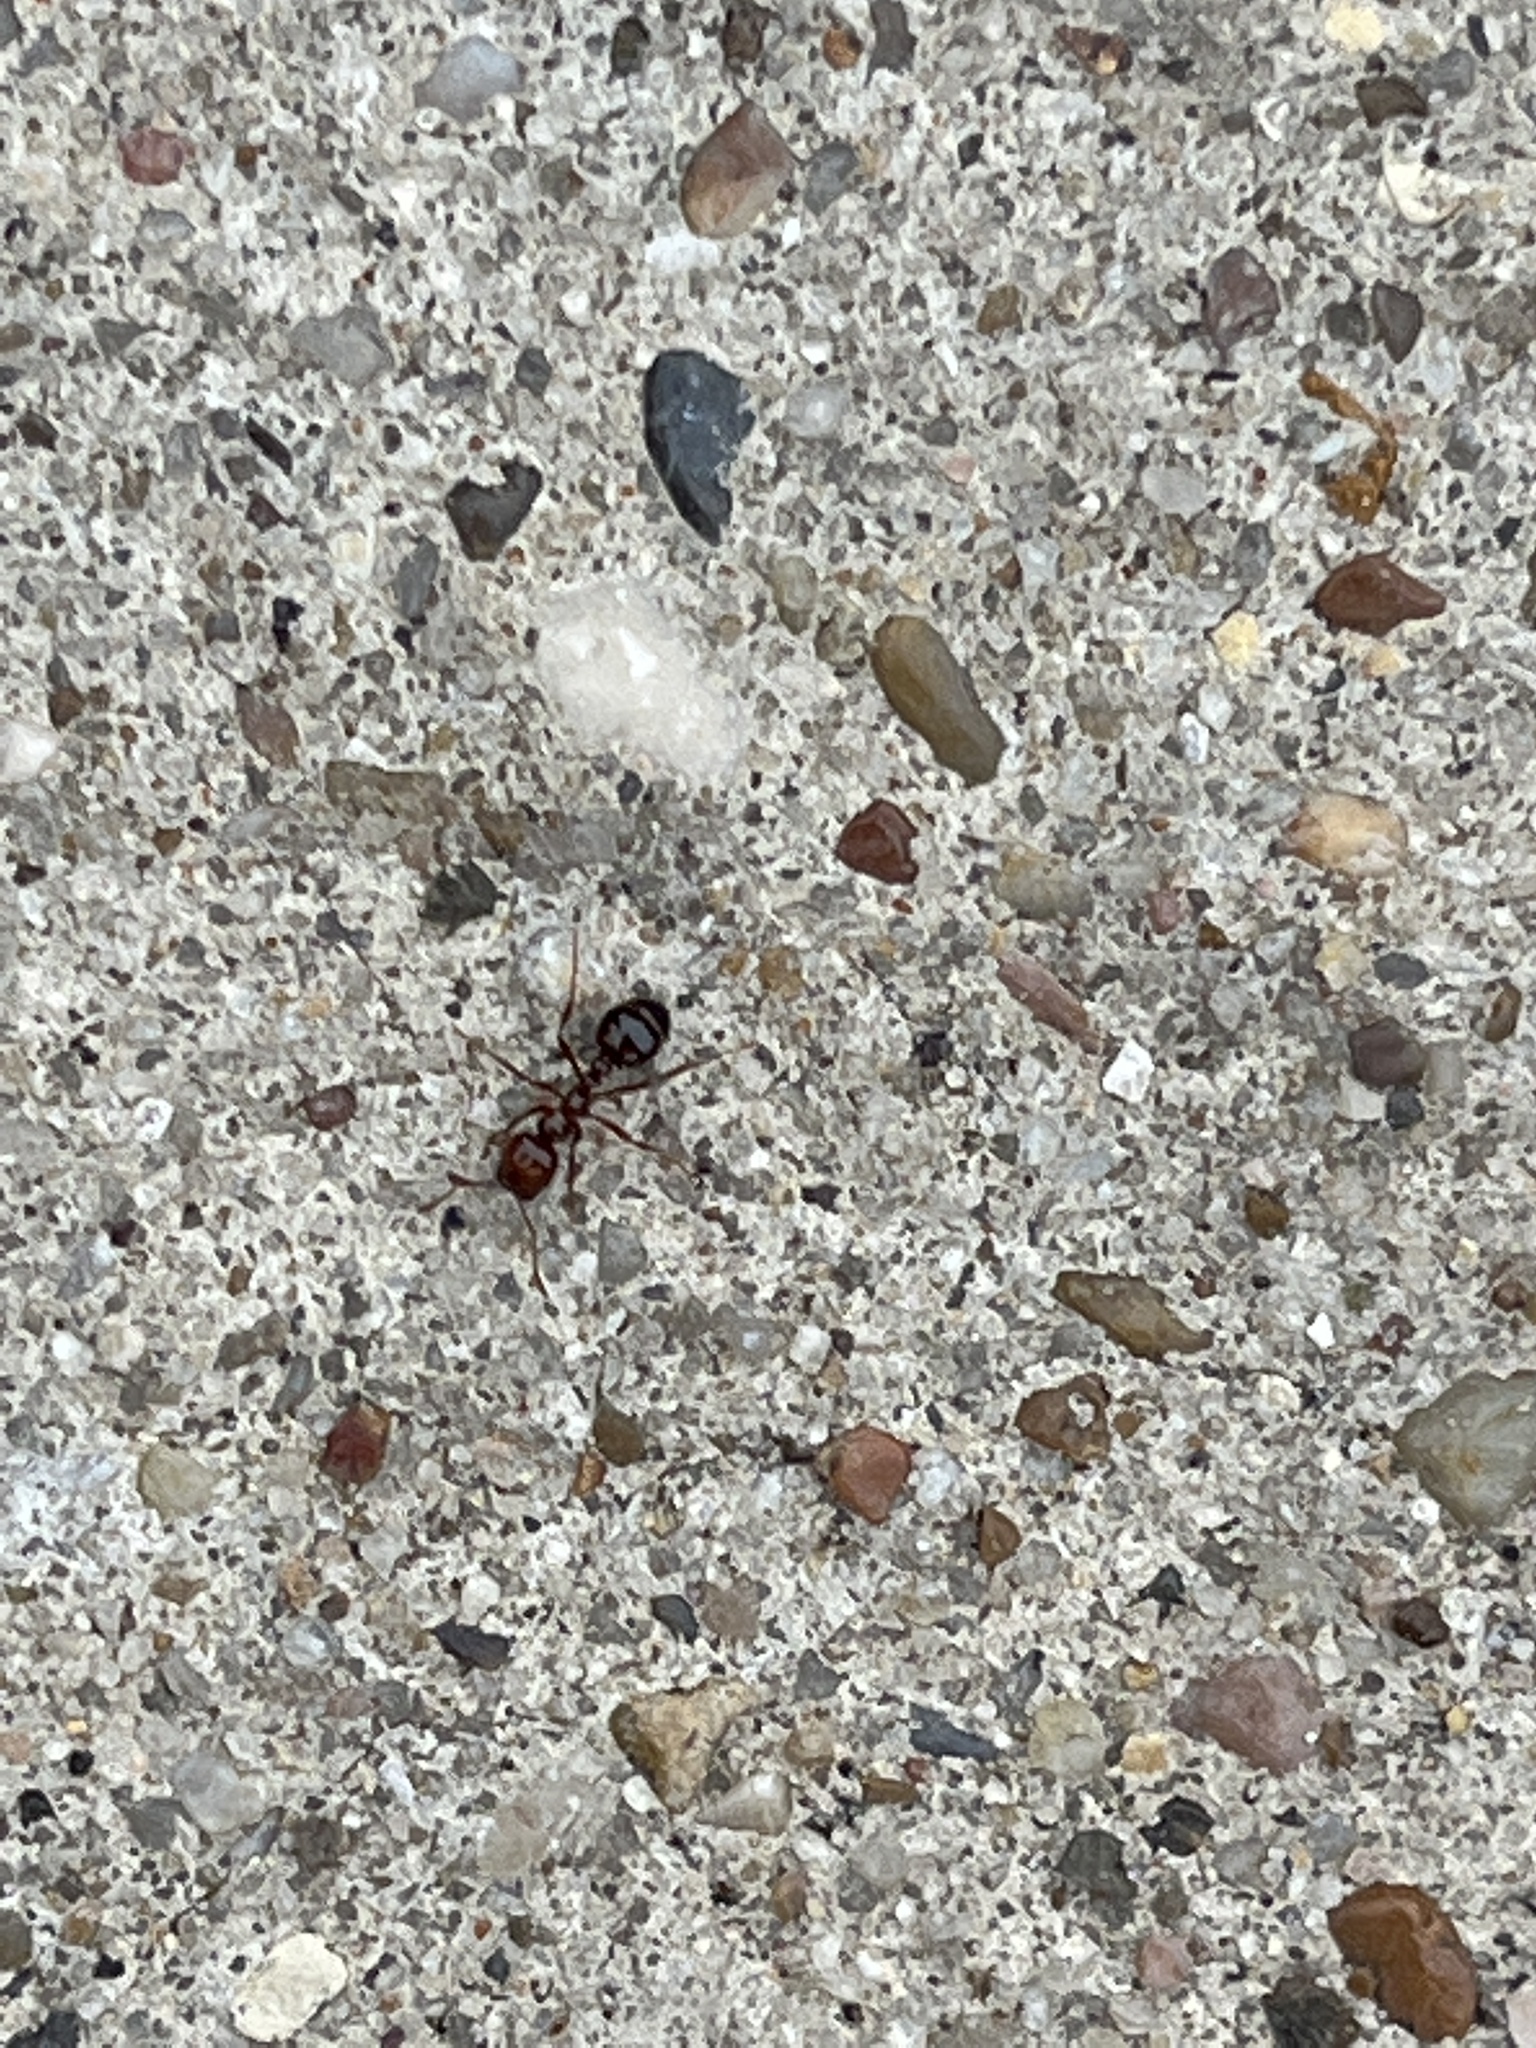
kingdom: Animalia
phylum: Arthropoda
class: Insecta
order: Hymenoptera
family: Formicidae
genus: Solenopsis
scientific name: Solenopsis invicta
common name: Red imported fire ant
